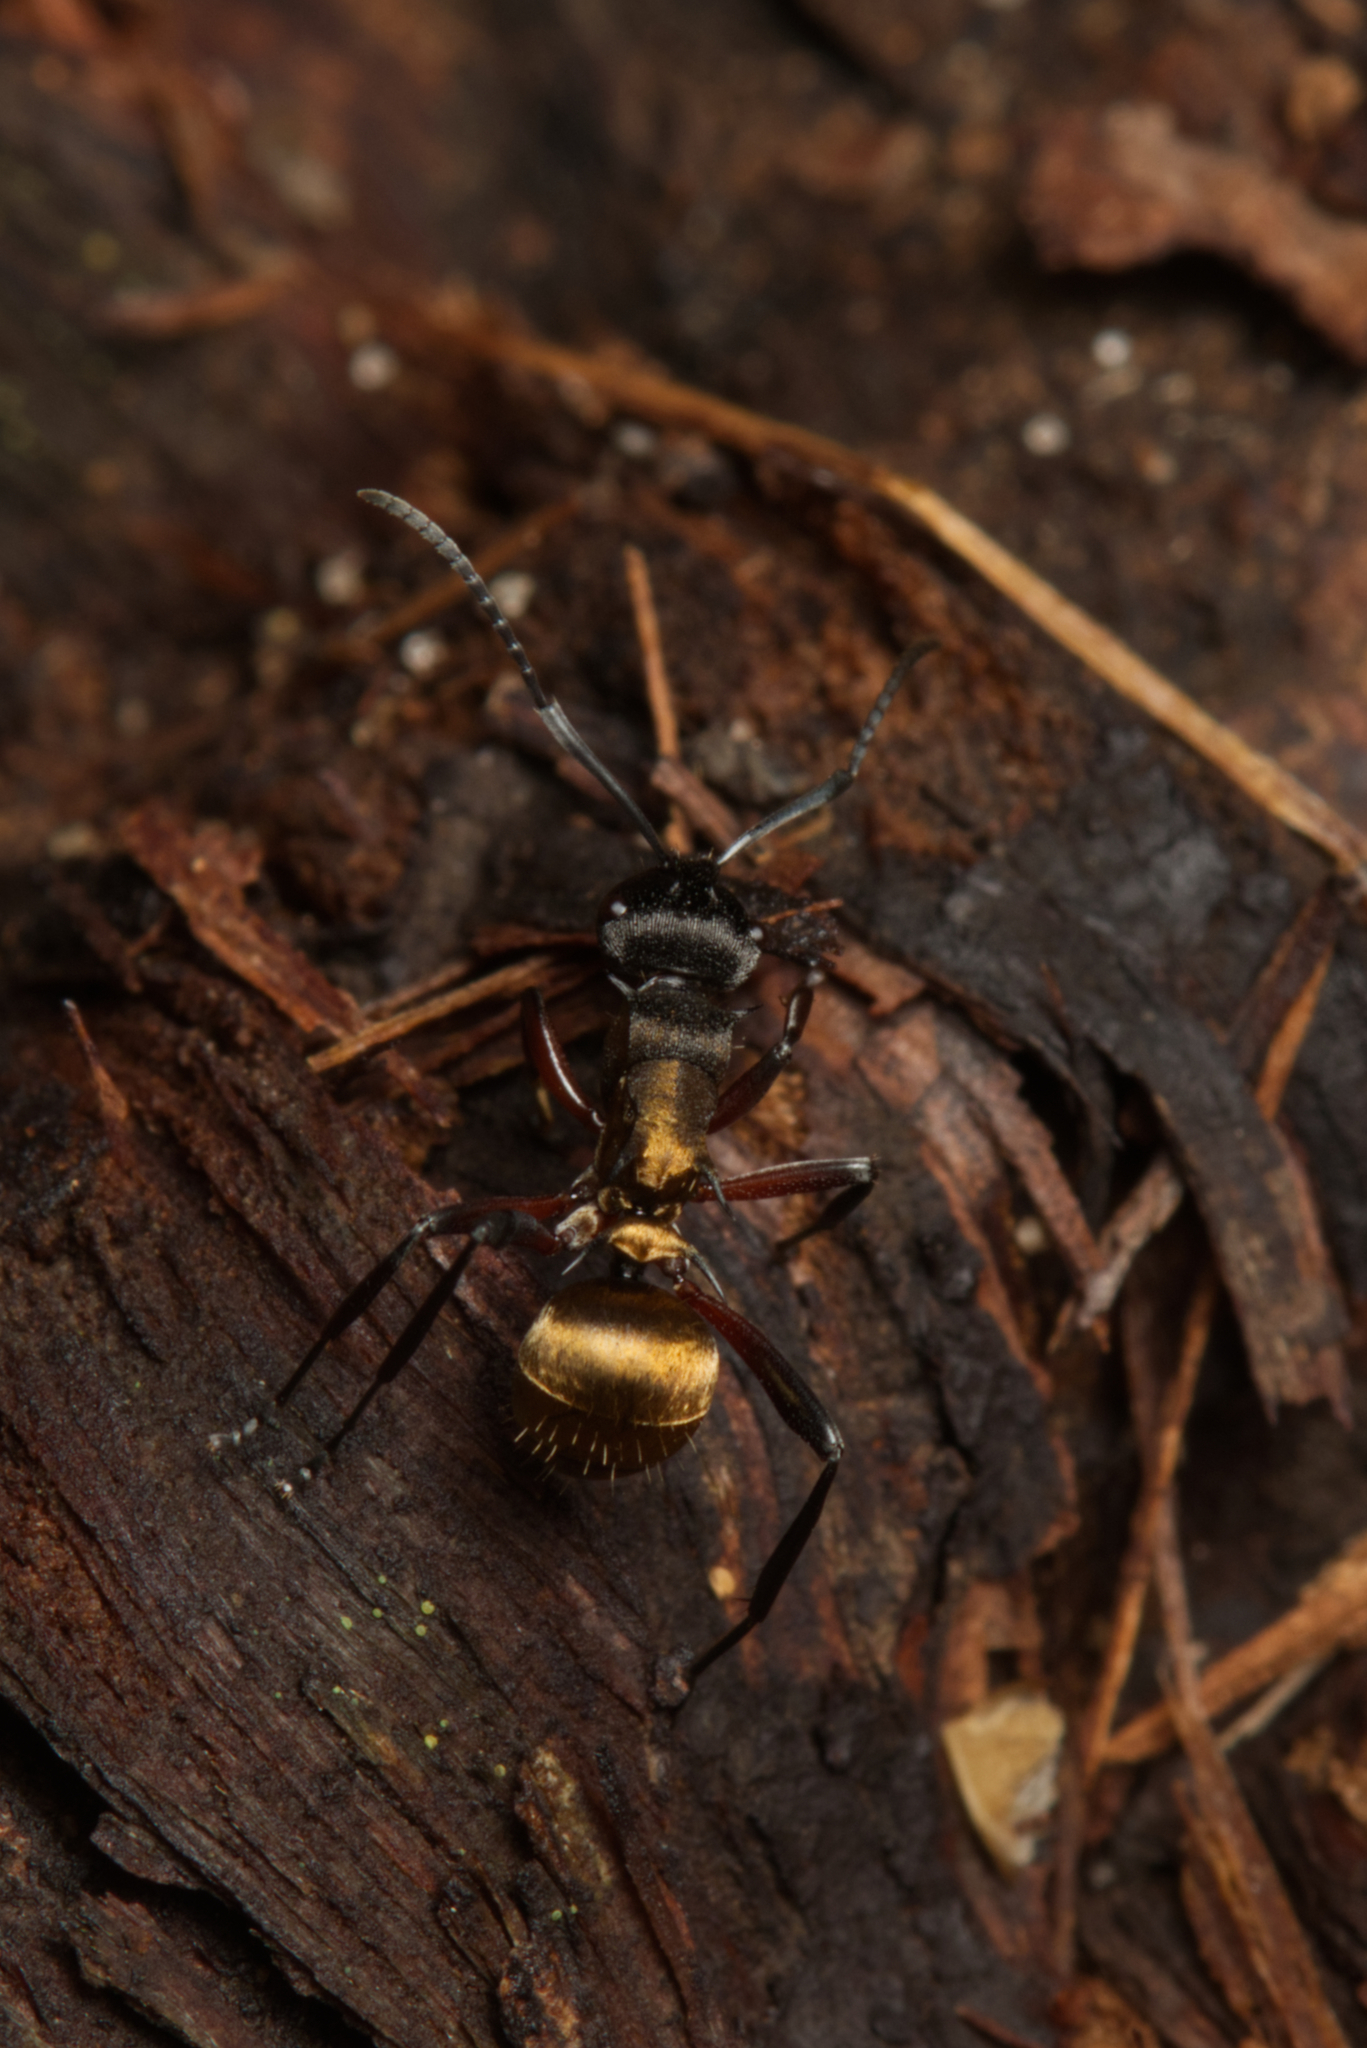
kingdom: Animalia
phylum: Arthropoda
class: Insecta
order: Hymenoptera
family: Formicidae
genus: Polyrhachis
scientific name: Polyrhachis rufifemur
